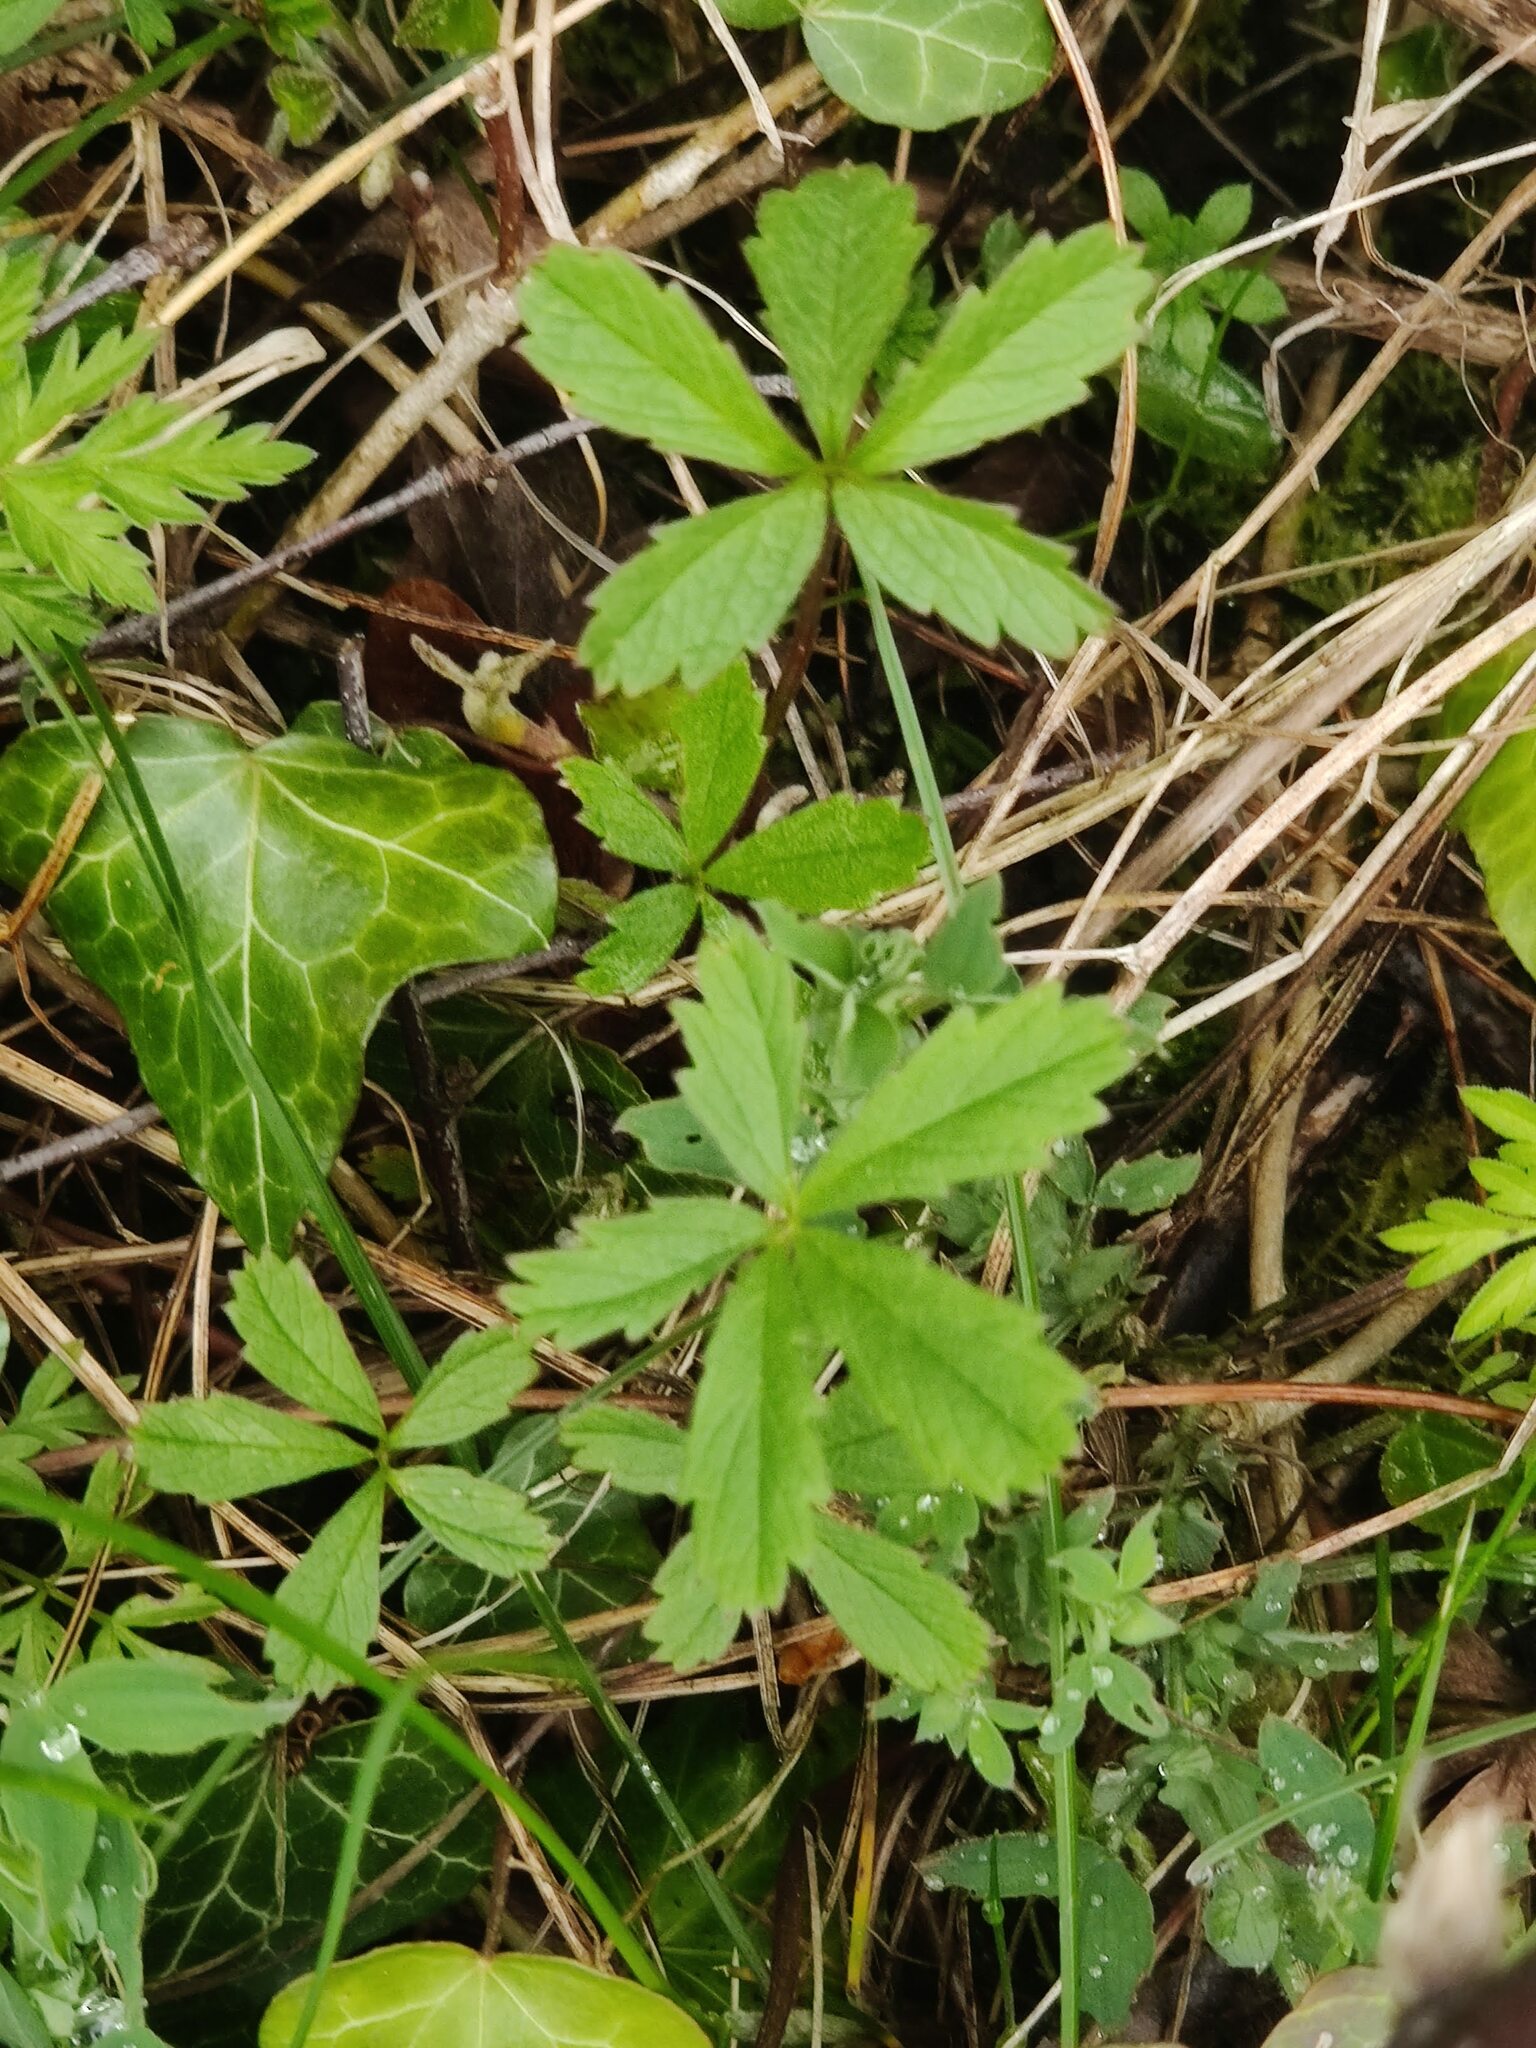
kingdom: Plantae
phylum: Tracheophyta
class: Magnoliopsida
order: Rosales
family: Rosaceae
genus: Potentilla
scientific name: Potentilla reptans
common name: Creeping cinquefoil
